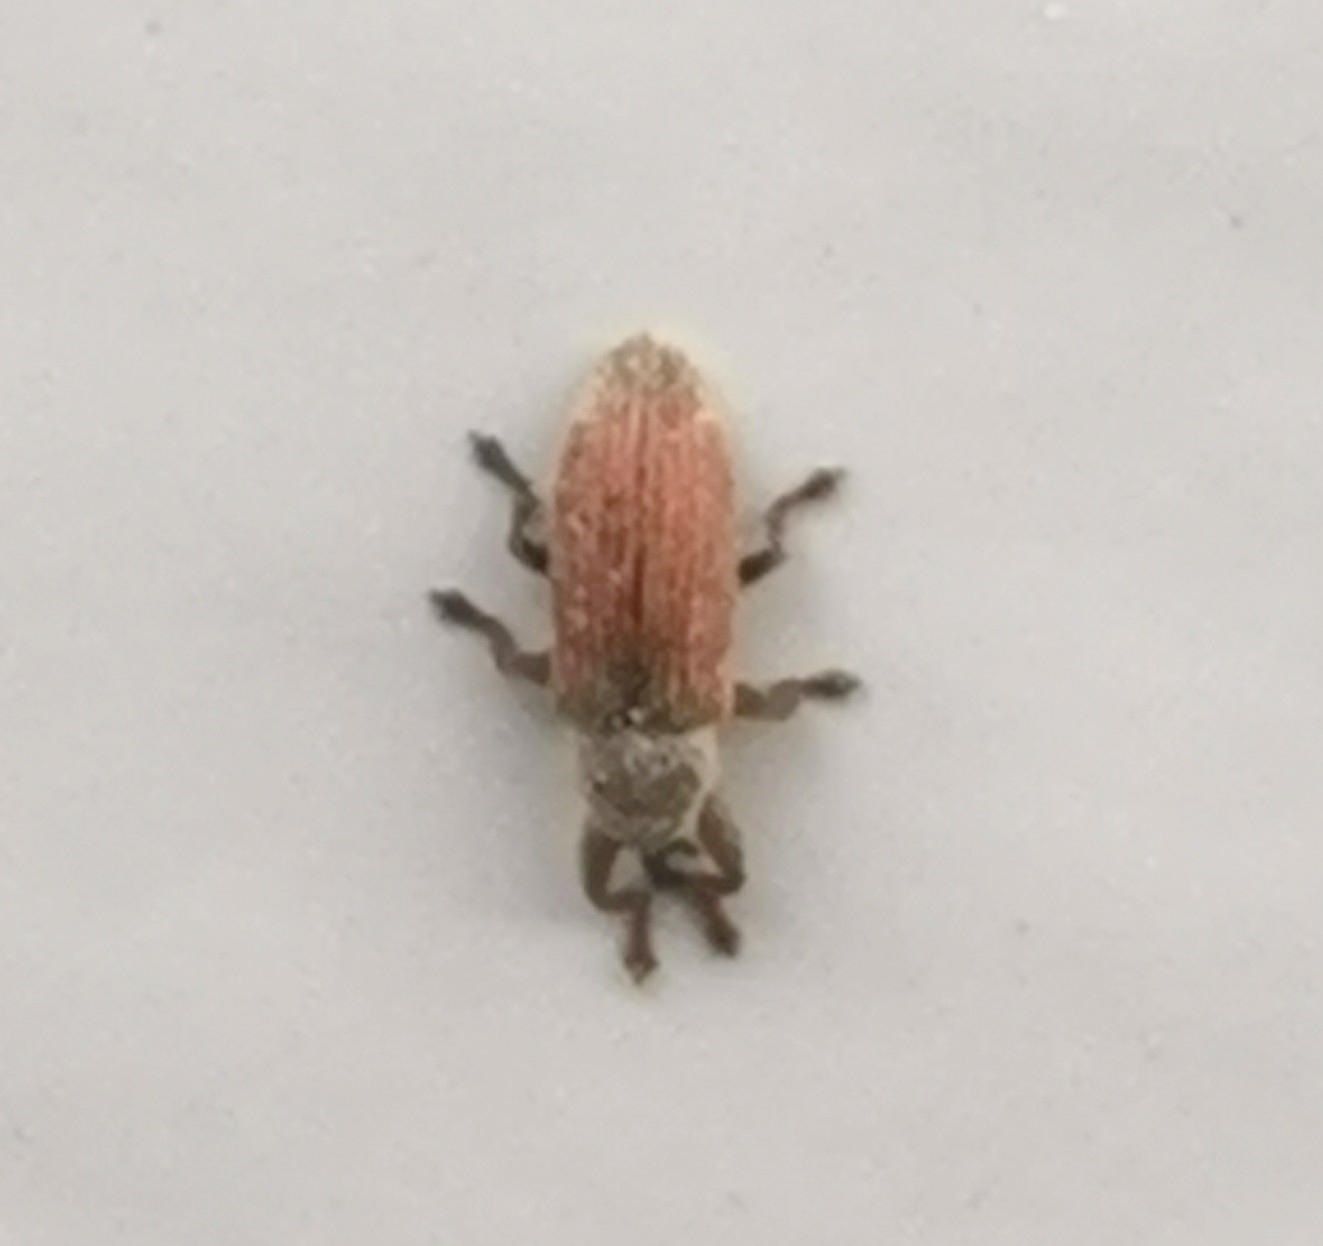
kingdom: Animalia
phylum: Arthropoda
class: Insecta
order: Coleoptera
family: Curculionidae
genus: Brachonyx
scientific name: Brachonyx pineti
